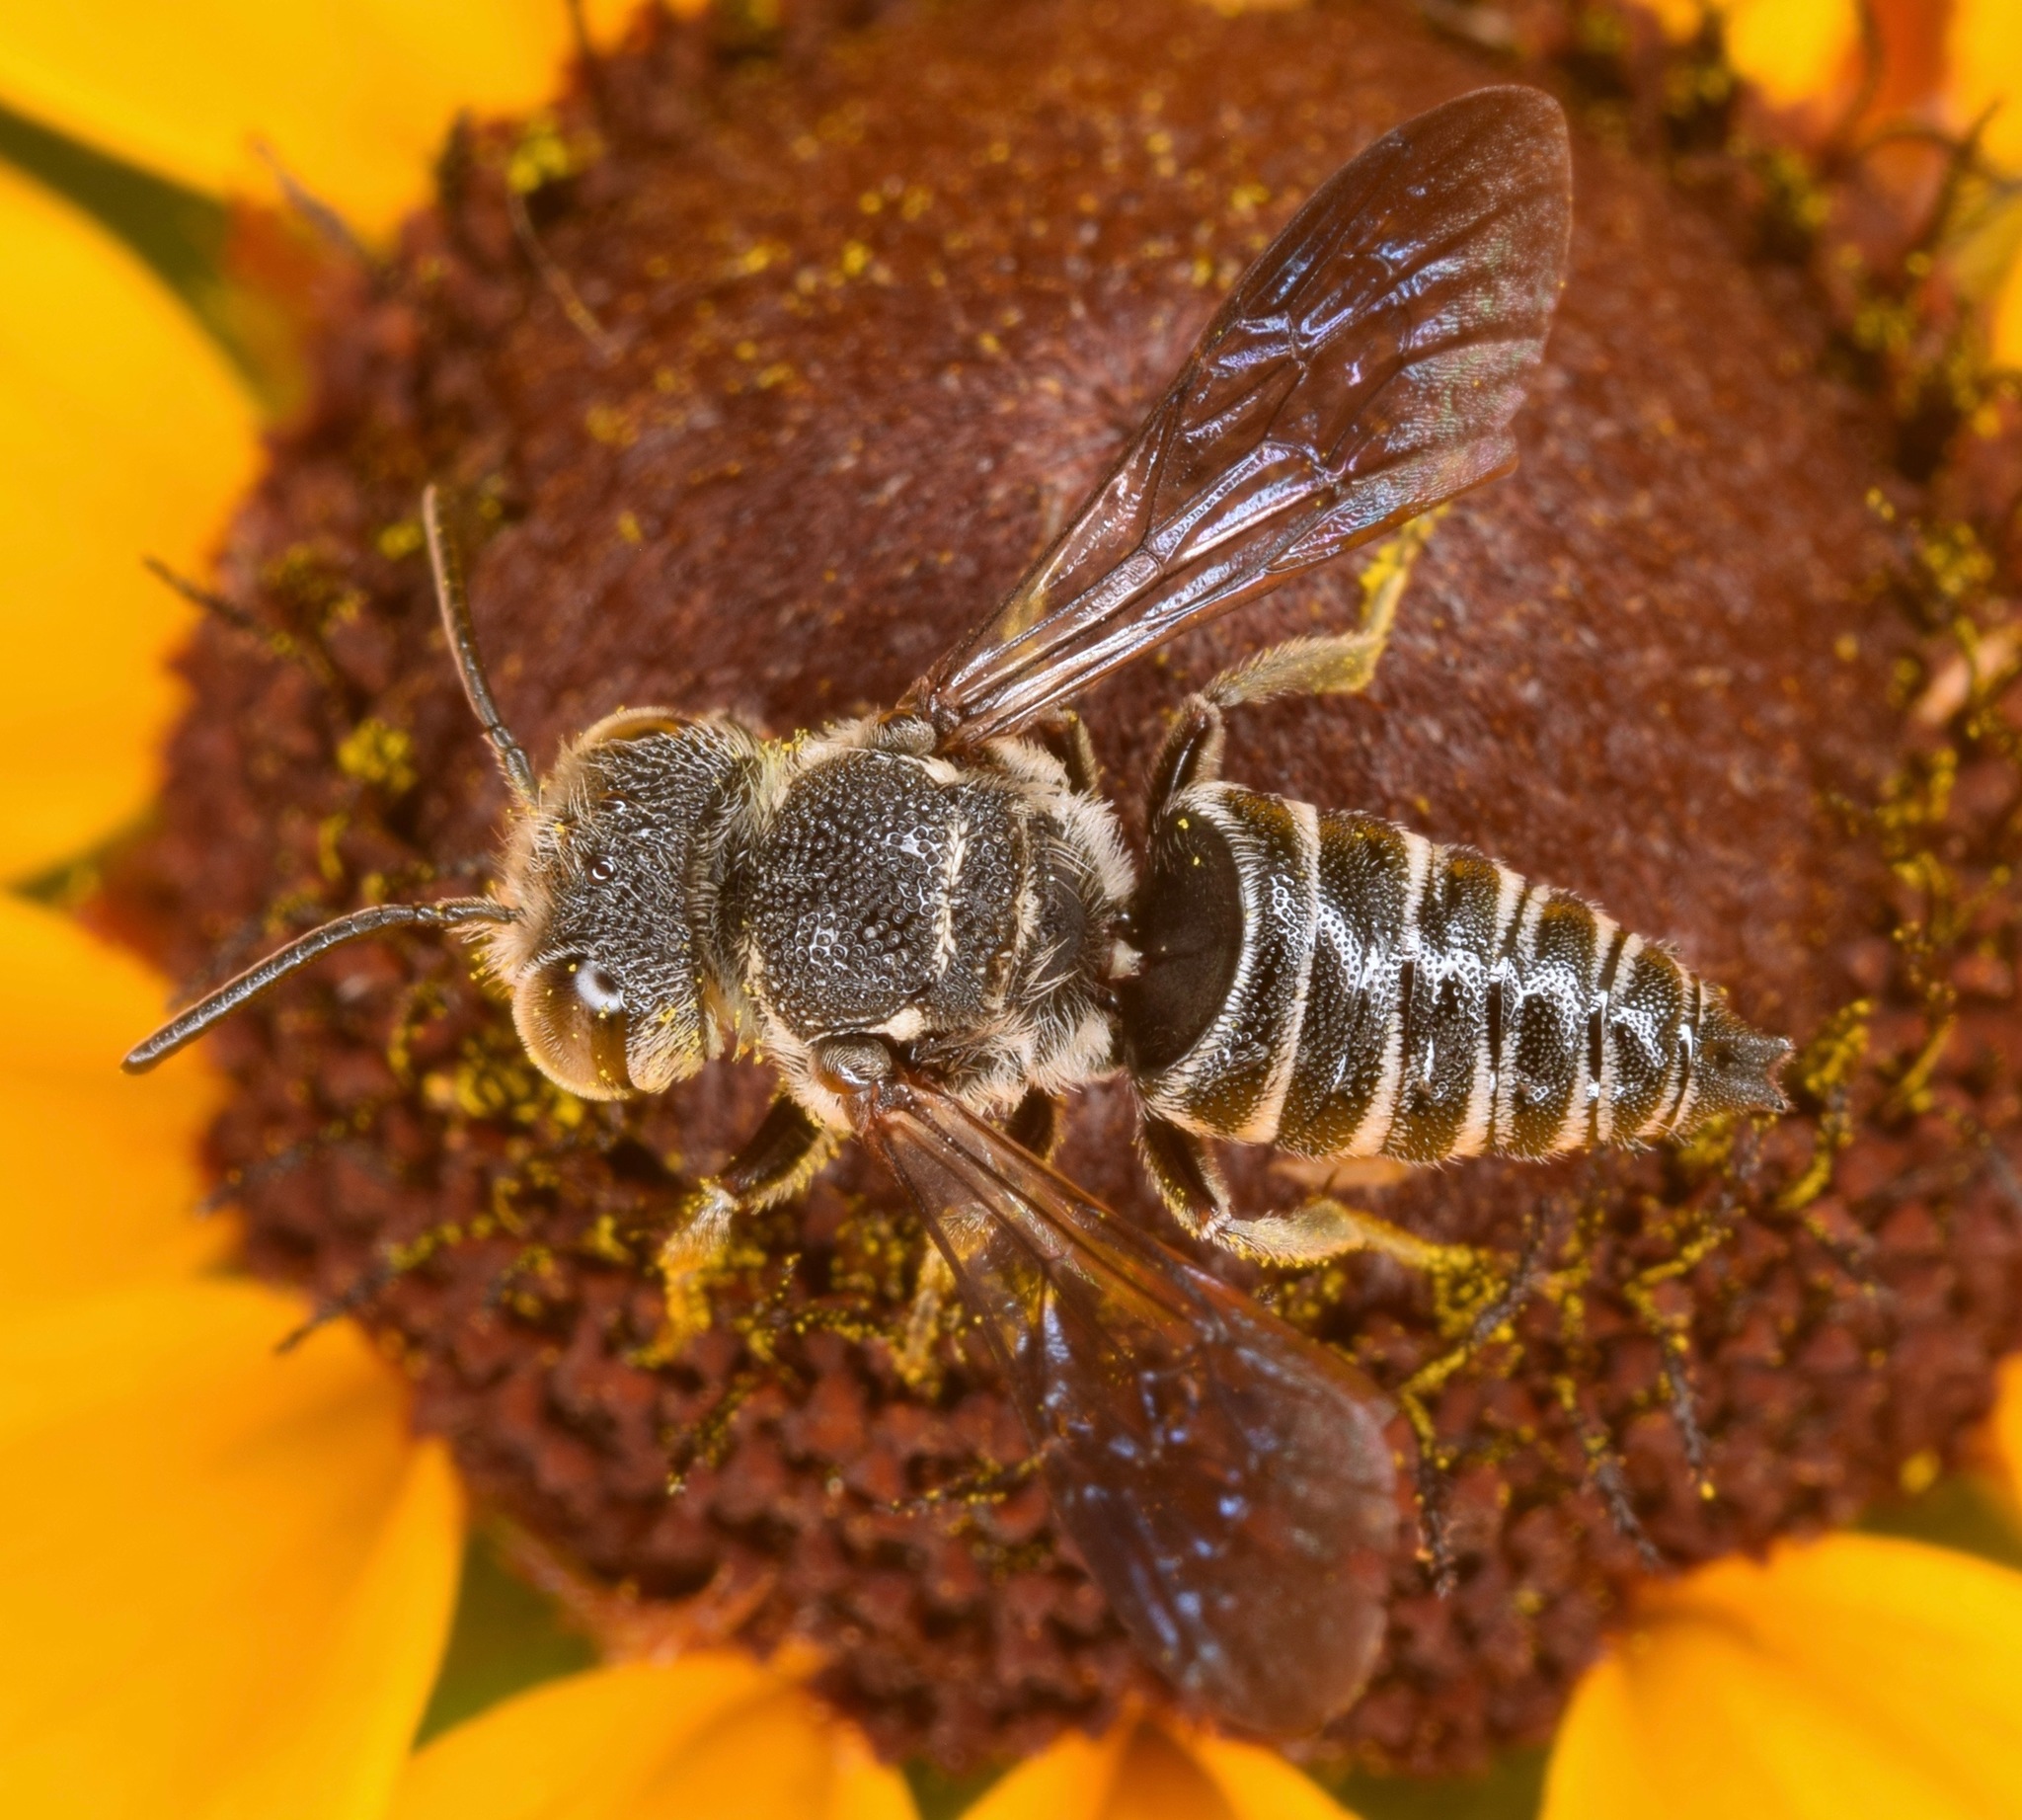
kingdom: Animalia
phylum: Arthropoda
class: Insecta
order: Hymenoptera
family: Megachilidae
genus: Cyrtocoelioxys
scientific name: Cyrtocoelioxys
